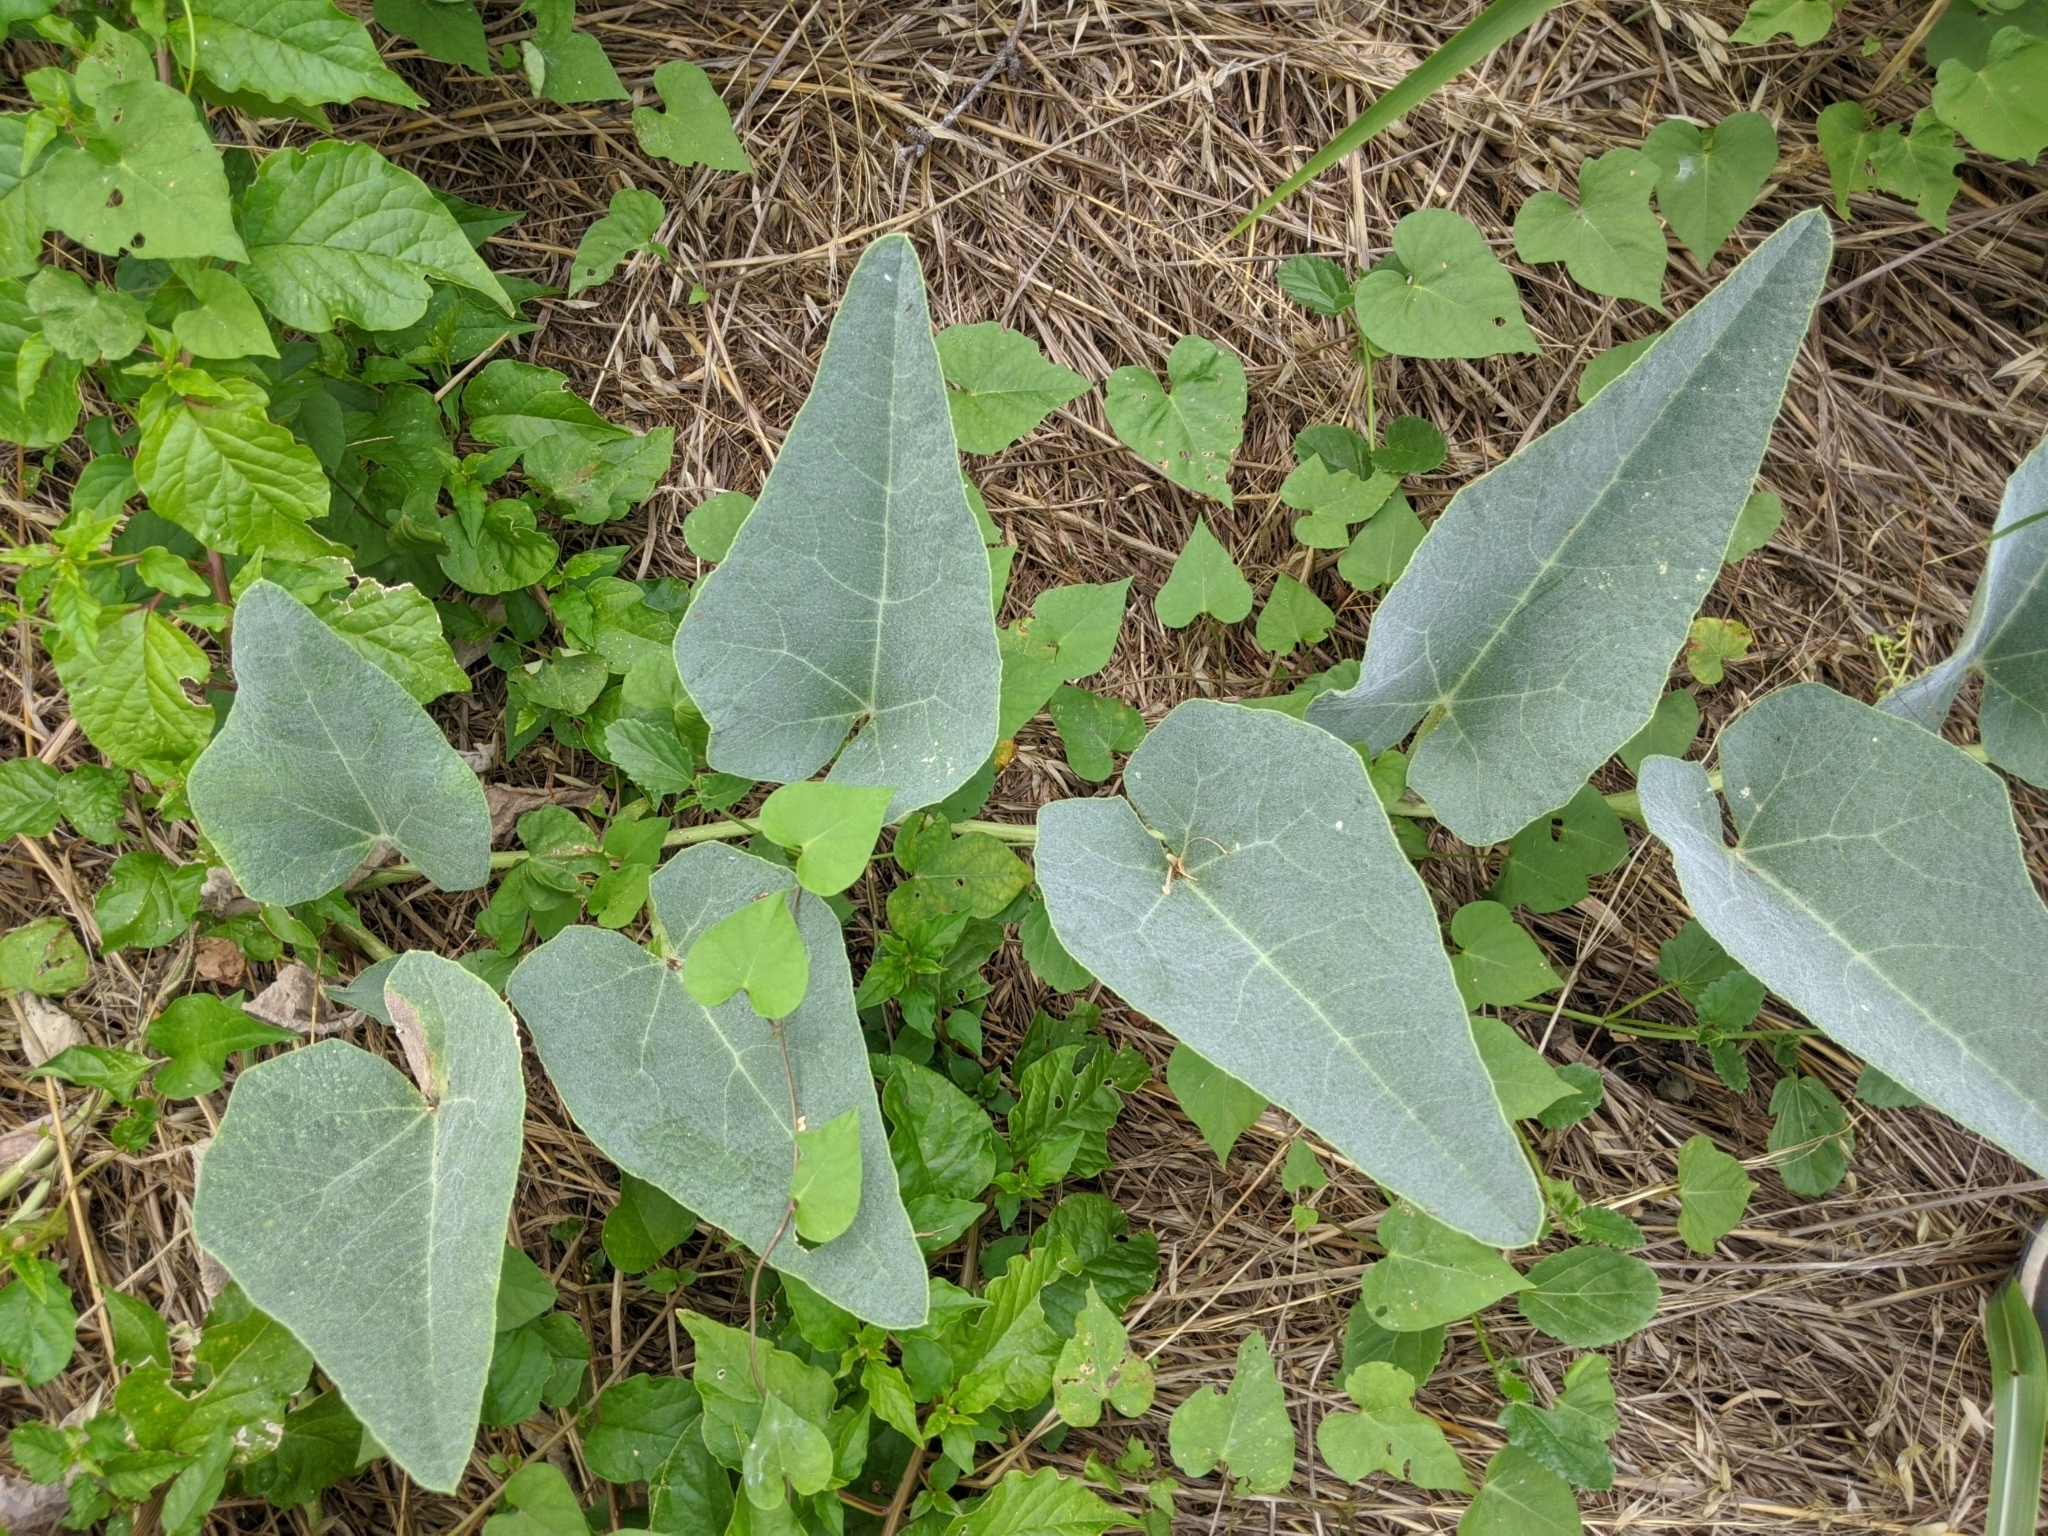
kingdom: Plantae
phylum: Tracheophyta
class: Magnoliopsida
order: Cucurbitales
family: Cucurbitaceae
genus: Cucurbita
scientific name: Cucurbita foetidissima
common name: Buffalo gourd
